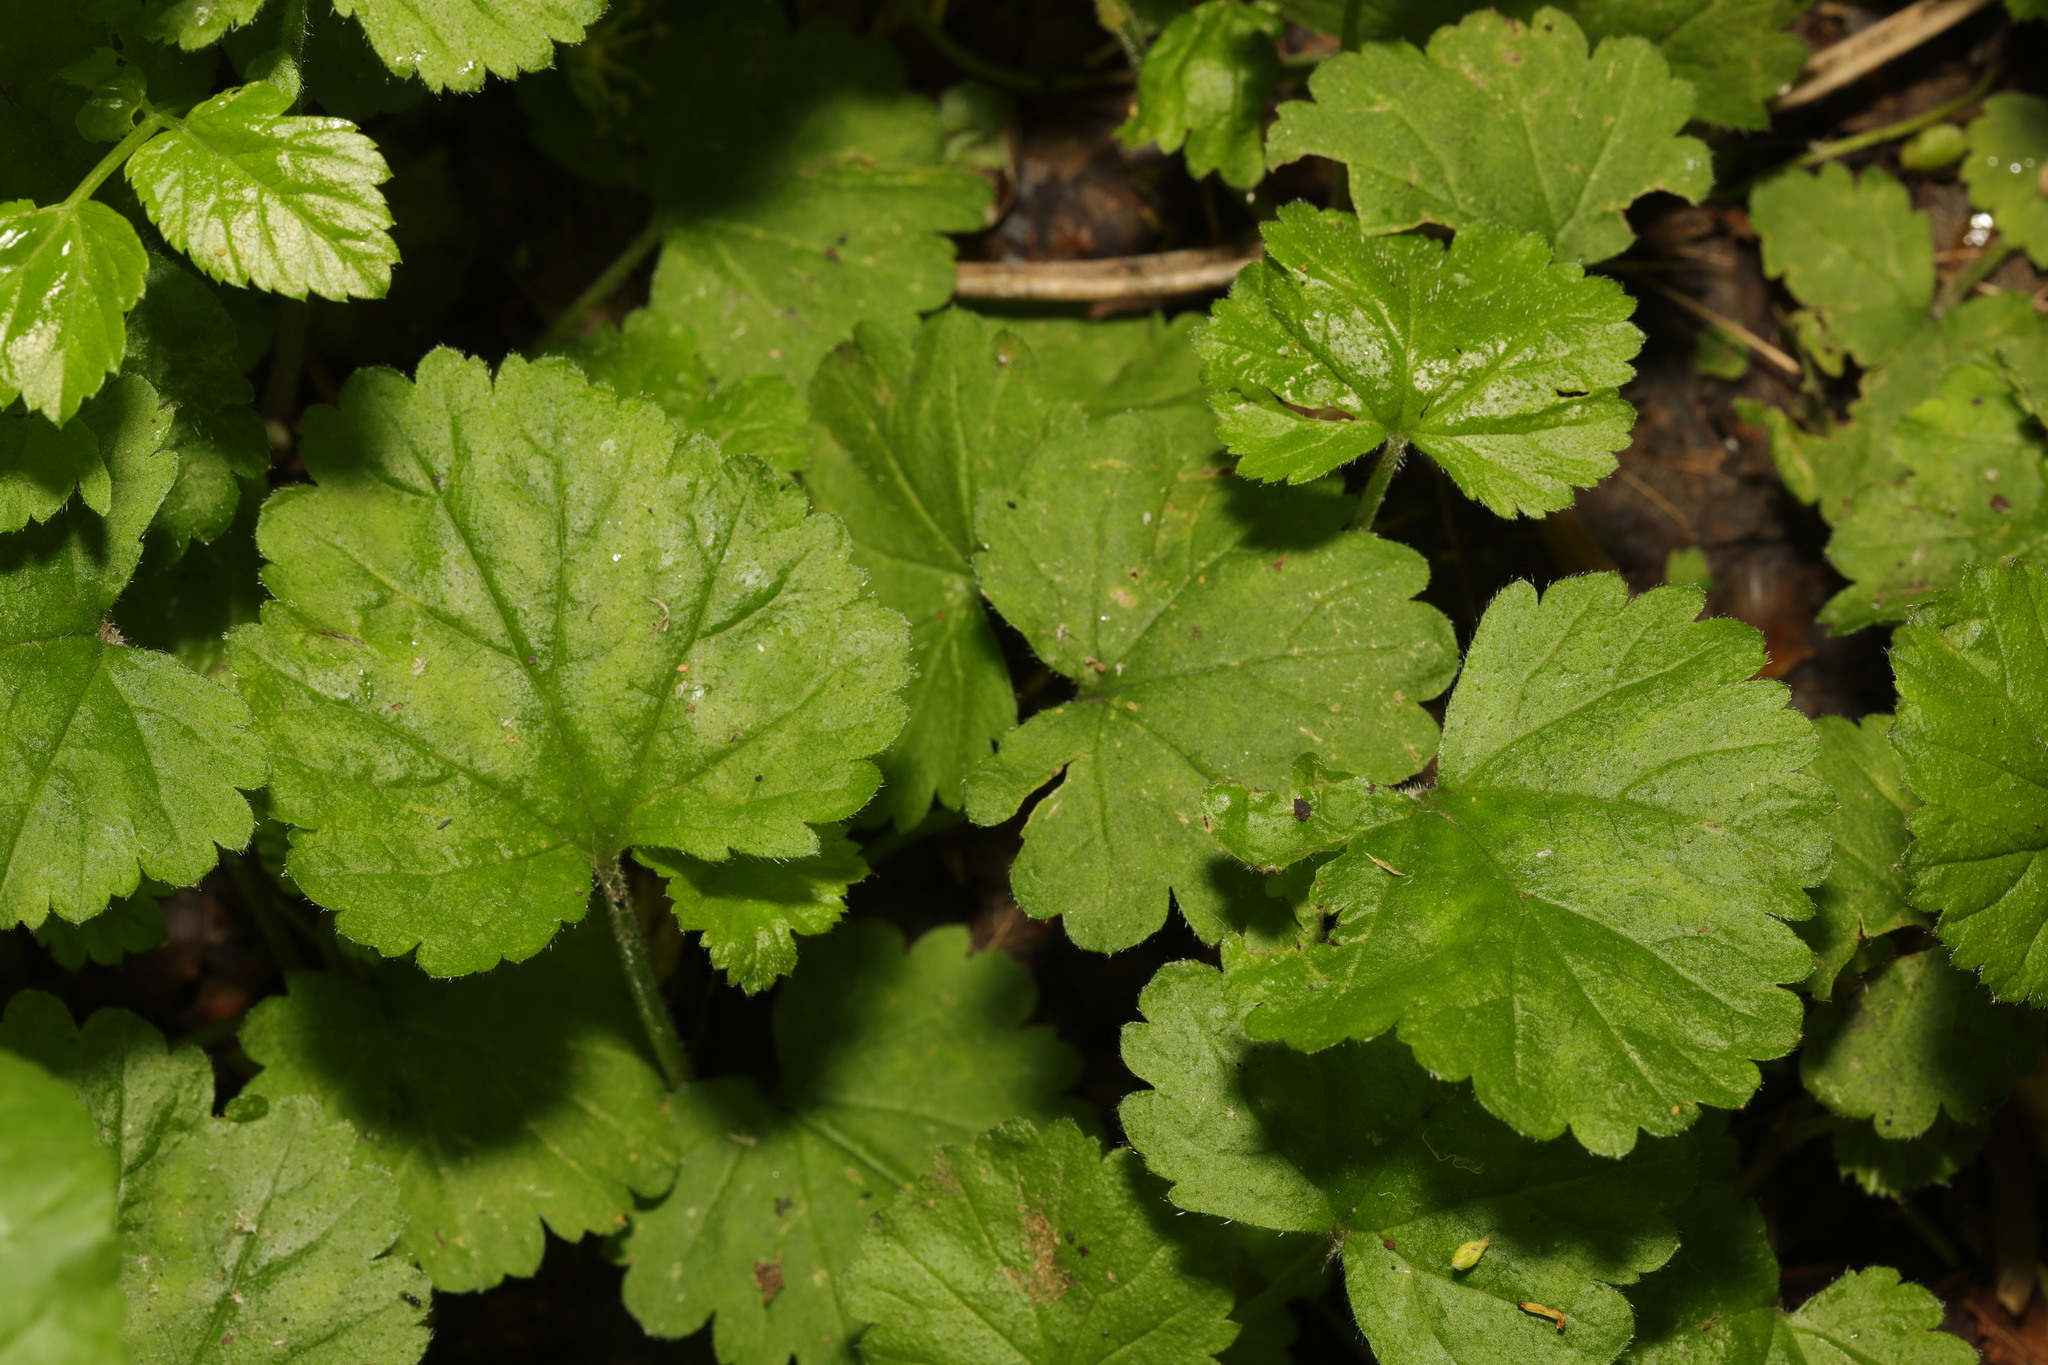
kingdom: Plantae
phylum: Tracheophyta
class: Magnoliopsida
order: Rosales
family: Rosaceae
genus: Geum
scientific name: Geum urbanum
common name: Wood avens
